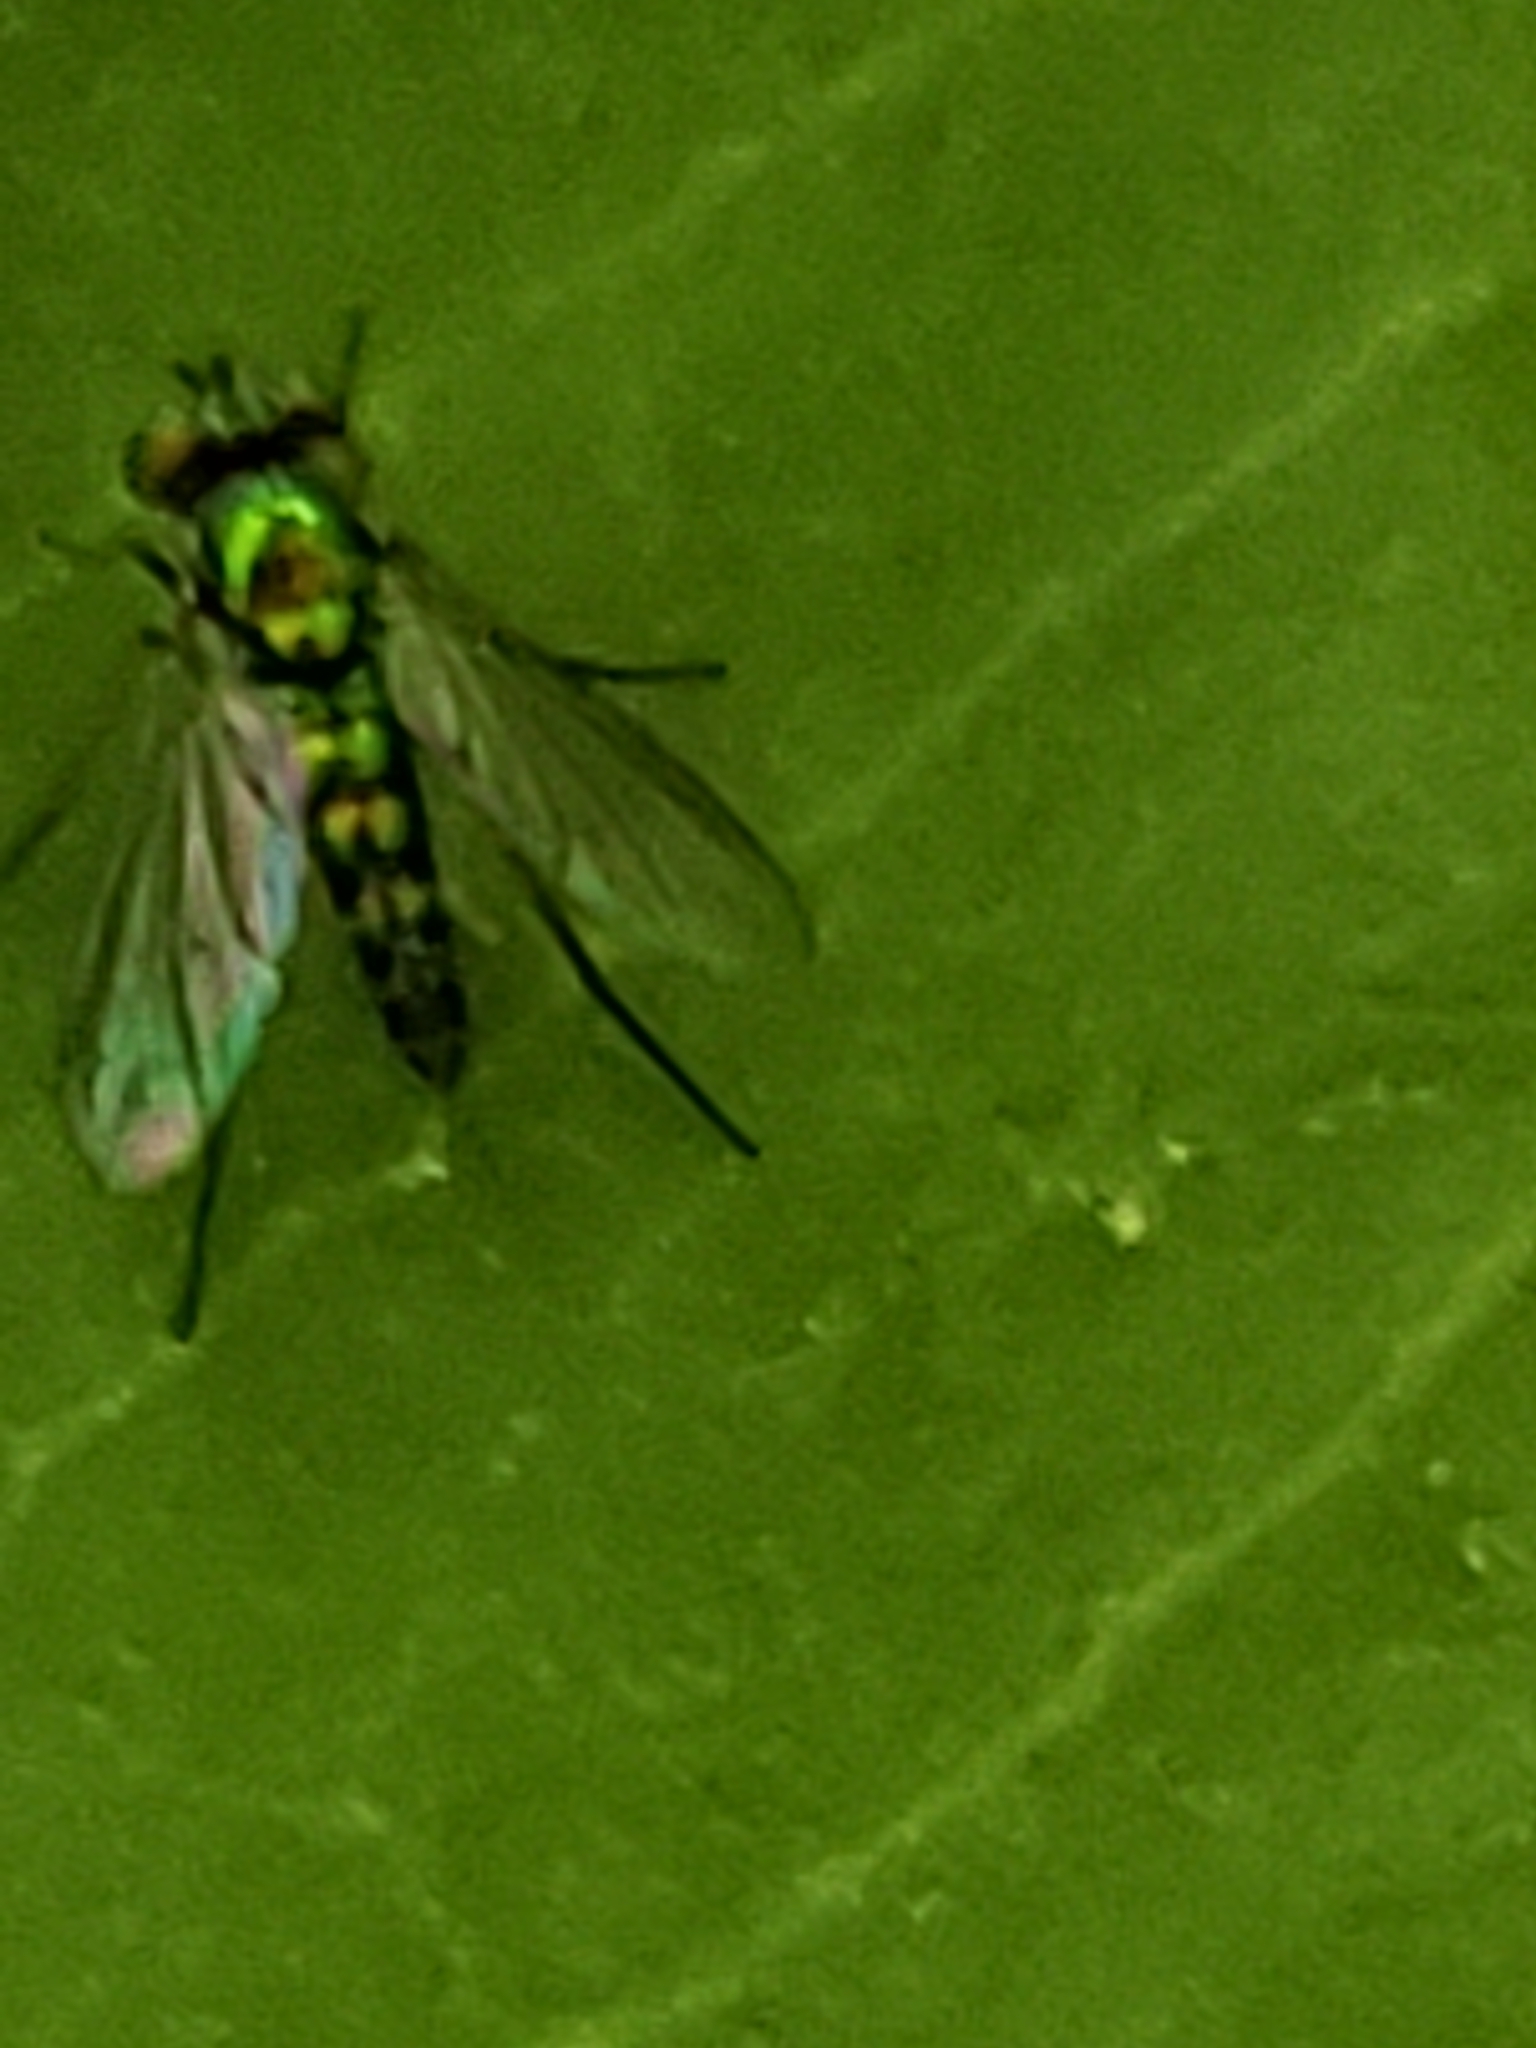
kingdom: Animalia
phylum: Arthropoda
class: Insecta
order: Diptera
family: Dolichopodidae
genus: Condylostylus
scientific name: Condylostylus caudatus
